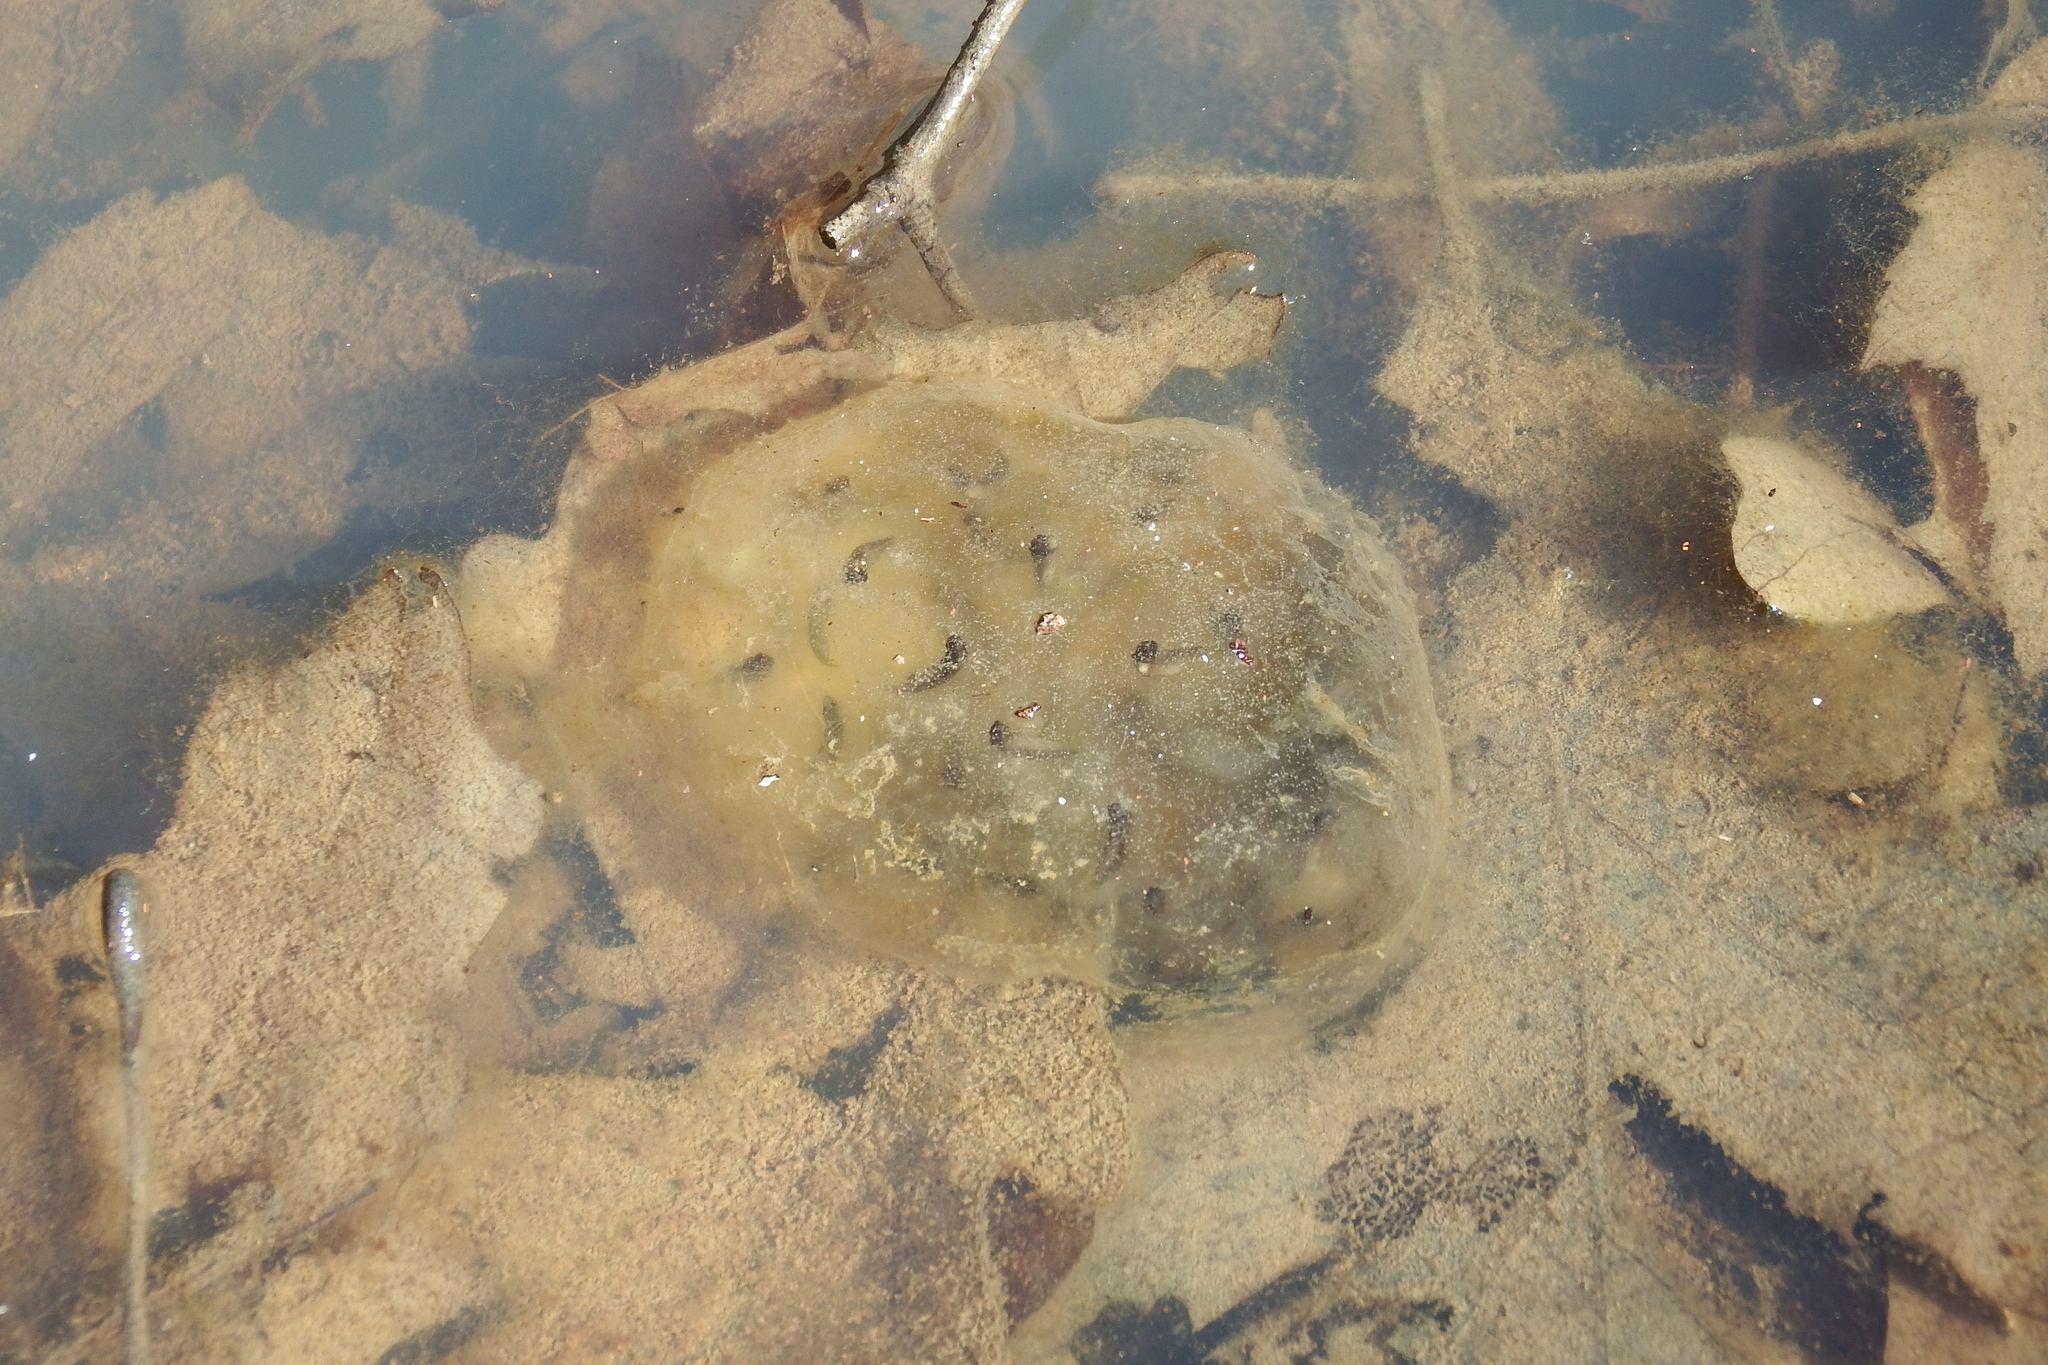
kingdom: Animalia
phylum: Chordata
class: Amphibia
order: Caudata
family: Ambystomatidae
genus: Ambystoma
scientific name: Ambystoma maculatum
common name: Spotted salamander
